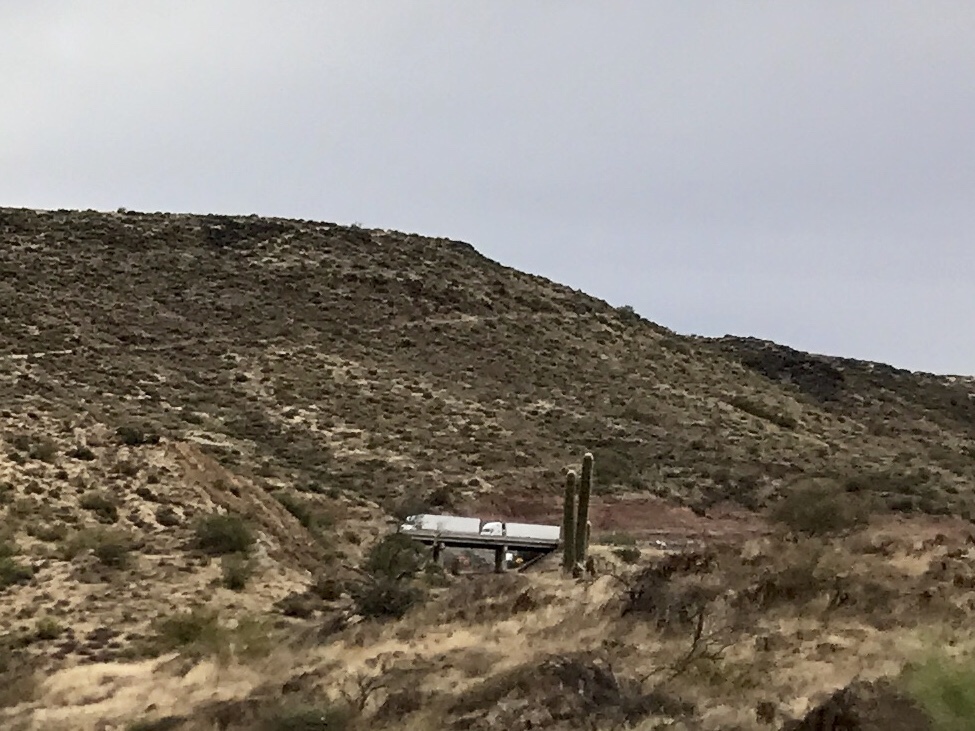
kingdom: Plantae
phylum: Tracheophyta
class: Magnoliopsida
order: Caryophyllales
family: Cactaceae
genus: Carnegiea
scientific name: Carnegiea gigantea
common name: Saguaro
